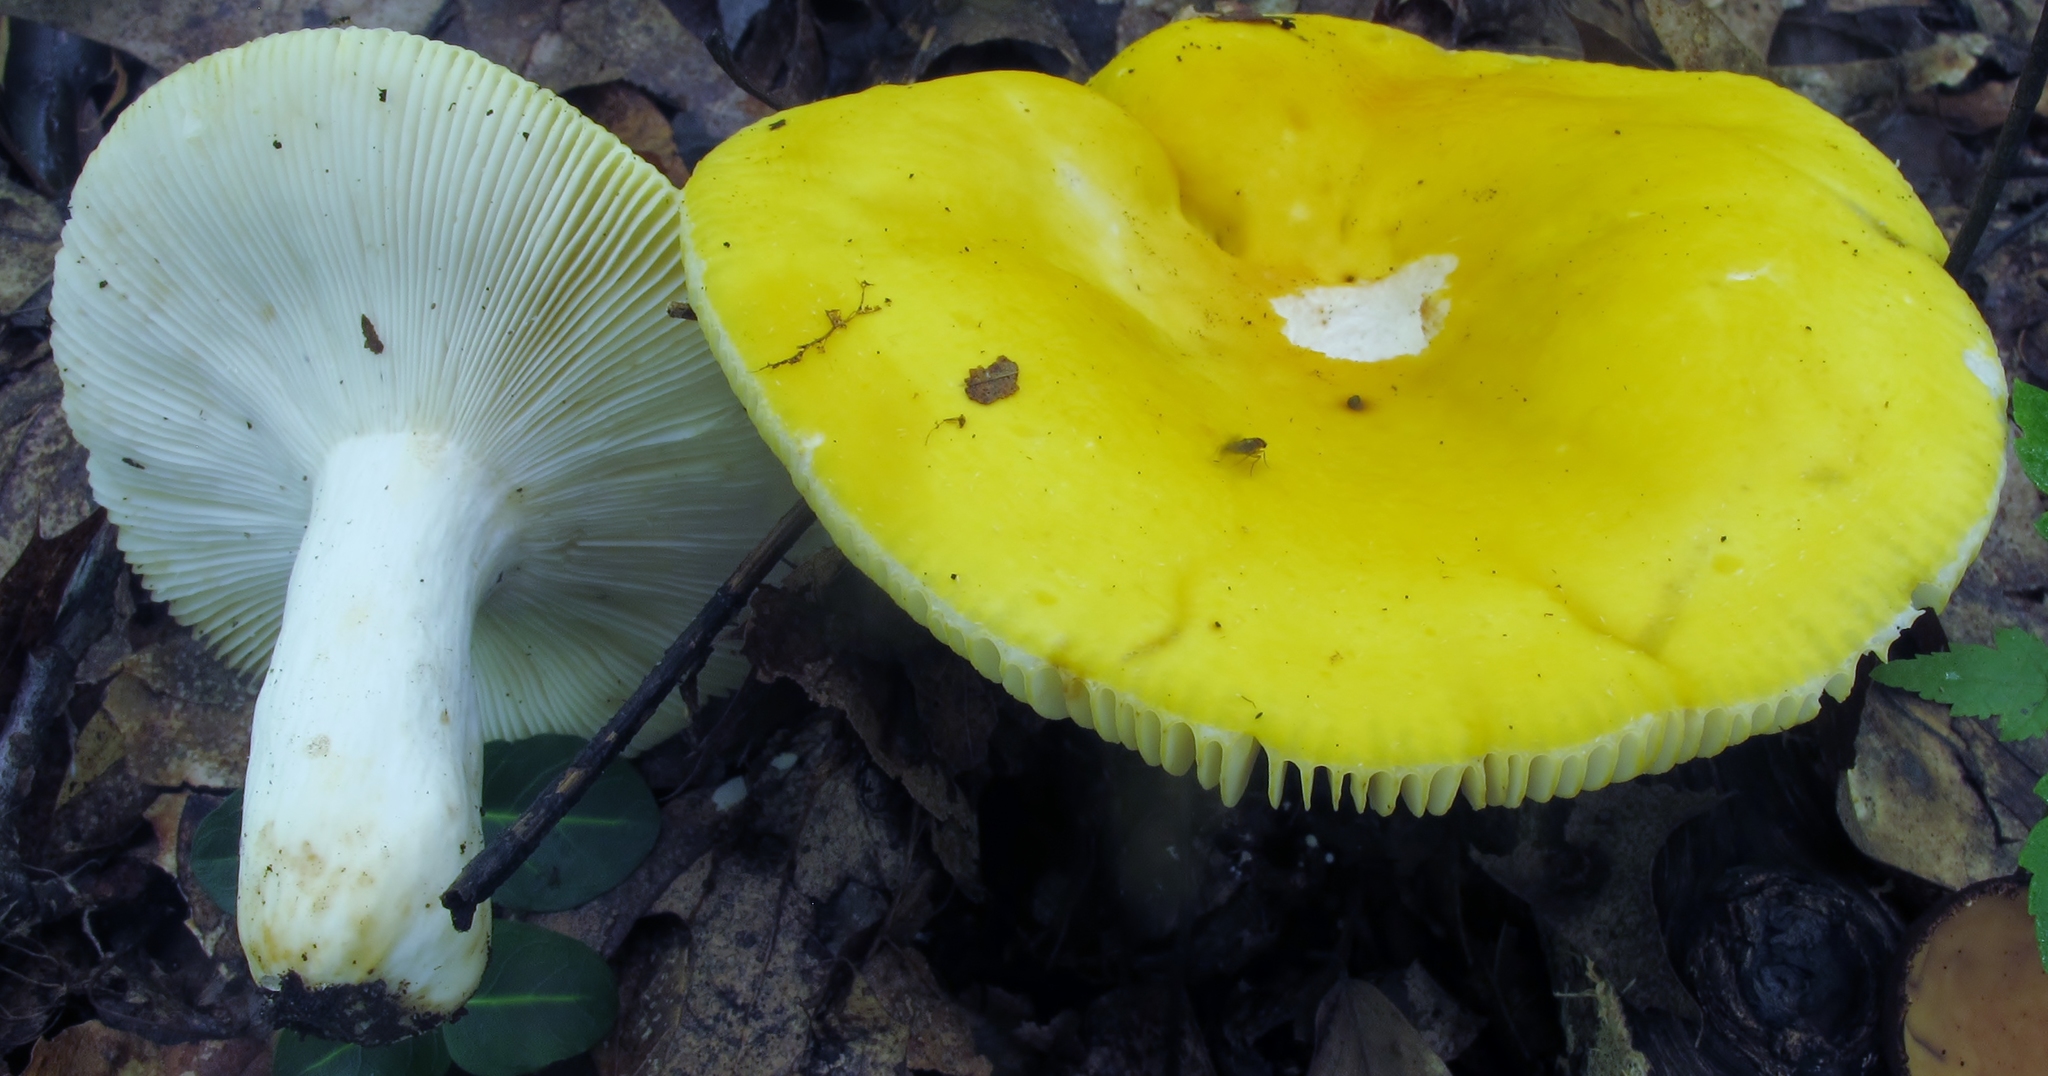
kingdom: Fungi
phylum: Basidiomycota
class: Agaricomycetes
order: Russulales
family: Russulaceae
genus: Russula
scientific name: Russula ochroleucoides
